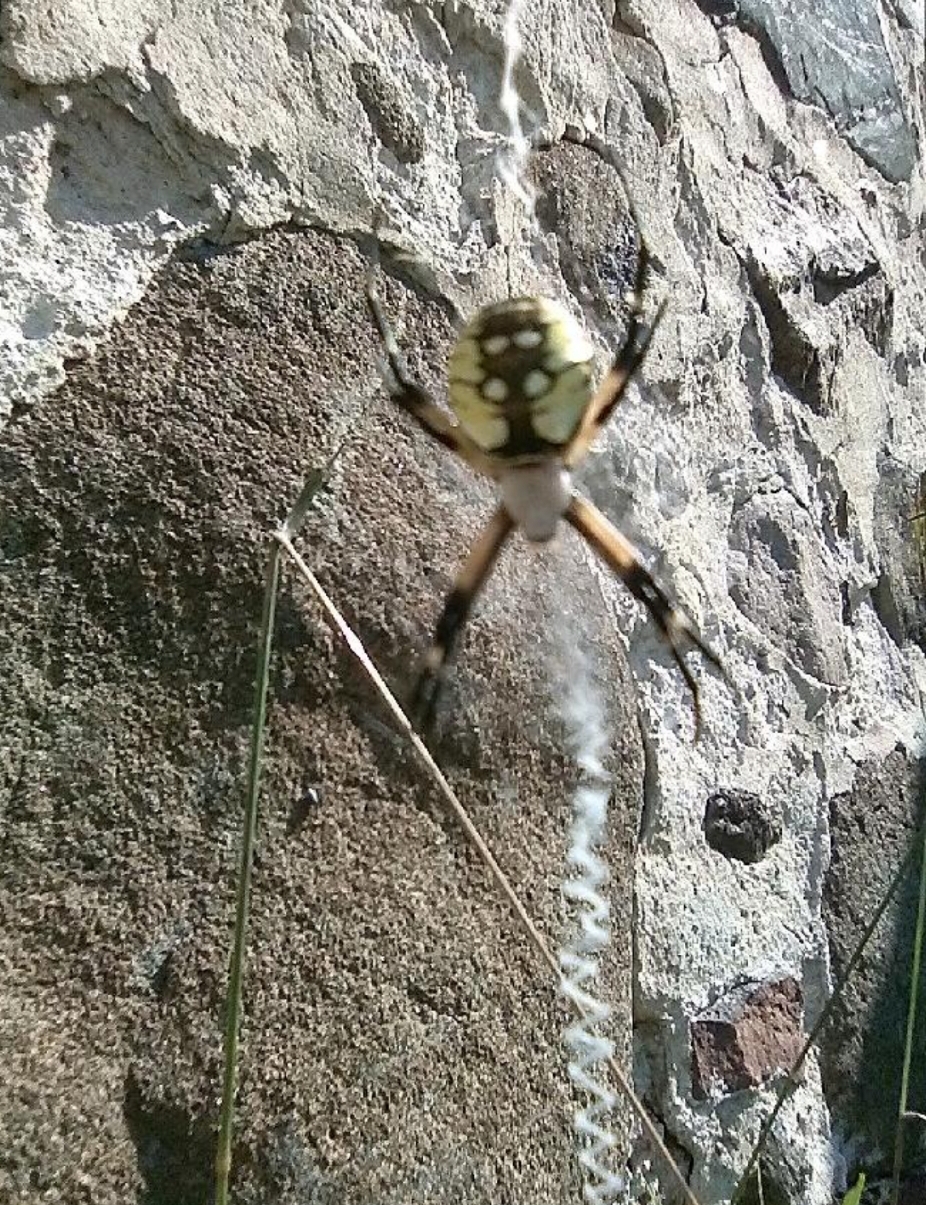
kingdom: Animalia
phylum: Arthropoda
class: Arachnida
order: Araneae
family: Araneidae
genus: Argiope
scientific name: Argiope aurantia
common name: Orb weavers
